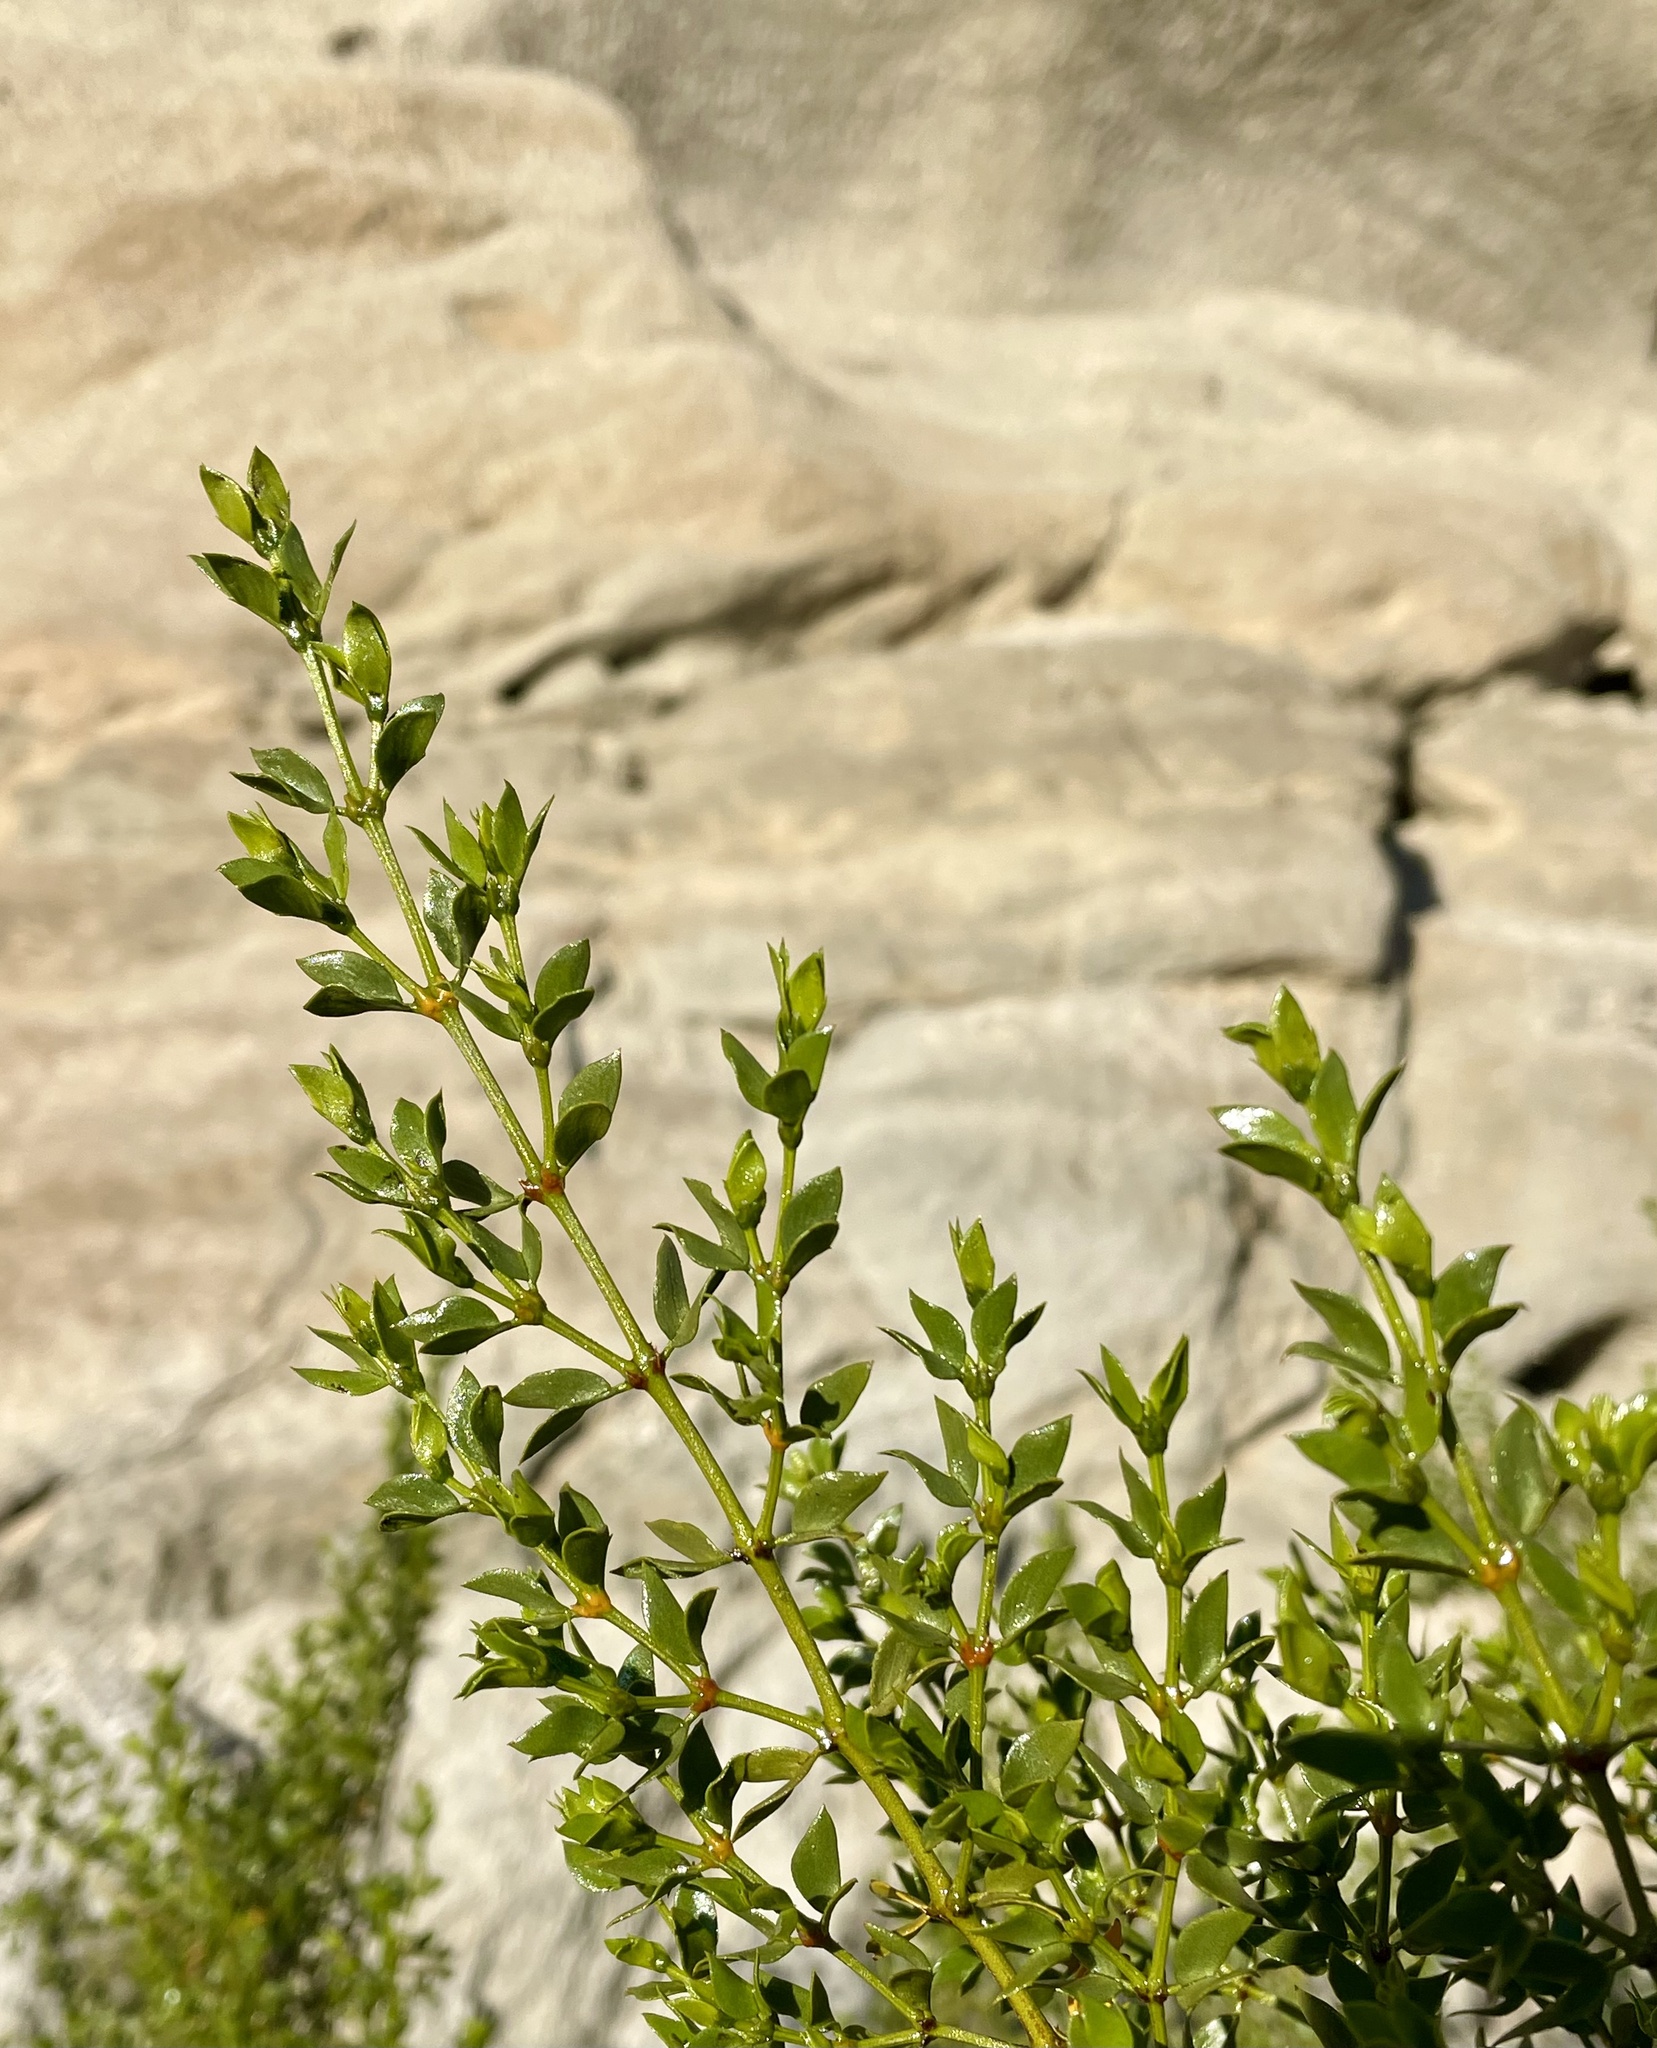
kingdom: Plantae
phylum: Tracheophyta
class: Magnoliopsida
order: Zygophyllales
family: Zygophyllaceae
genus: Larrea
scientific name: Larrea tridentata
